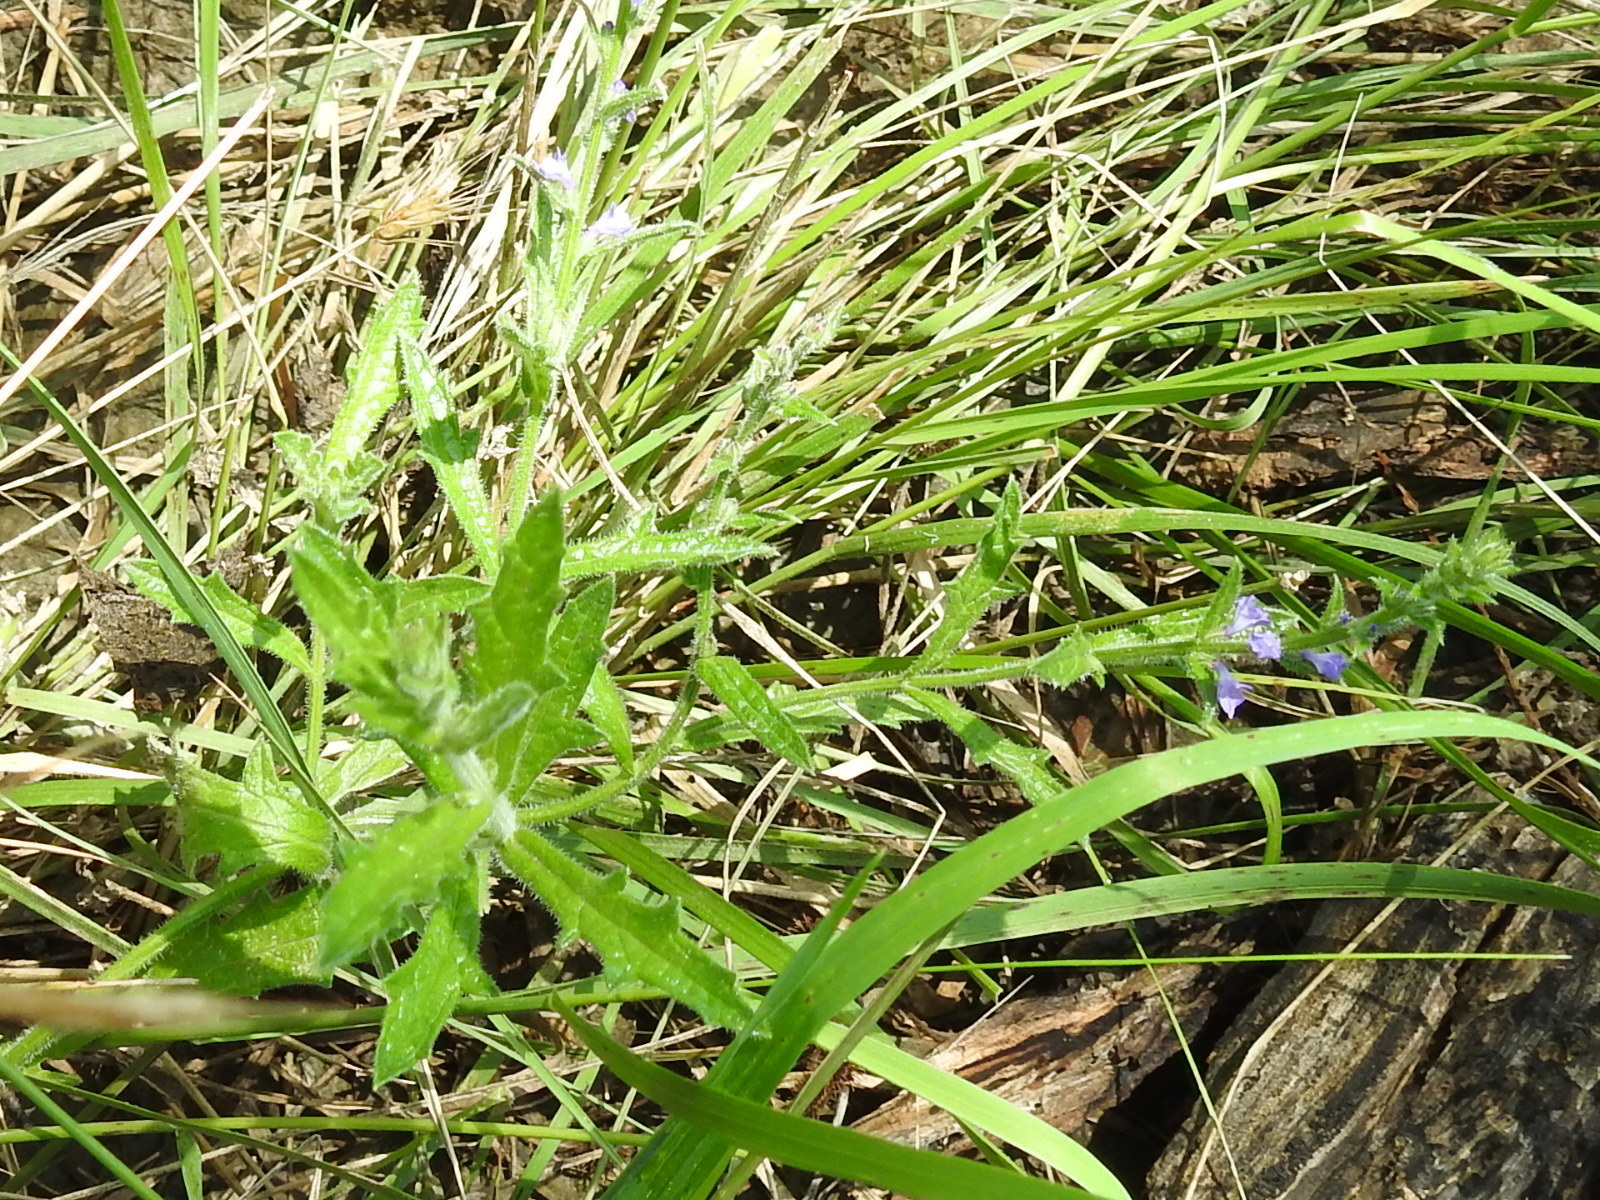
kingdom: Plantae
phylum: Tracheophyta
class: Magnoliopsida
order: Lamiales
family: Verbenaceae
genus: Verbena
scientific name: Verbena canescens
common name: Gray vervain
